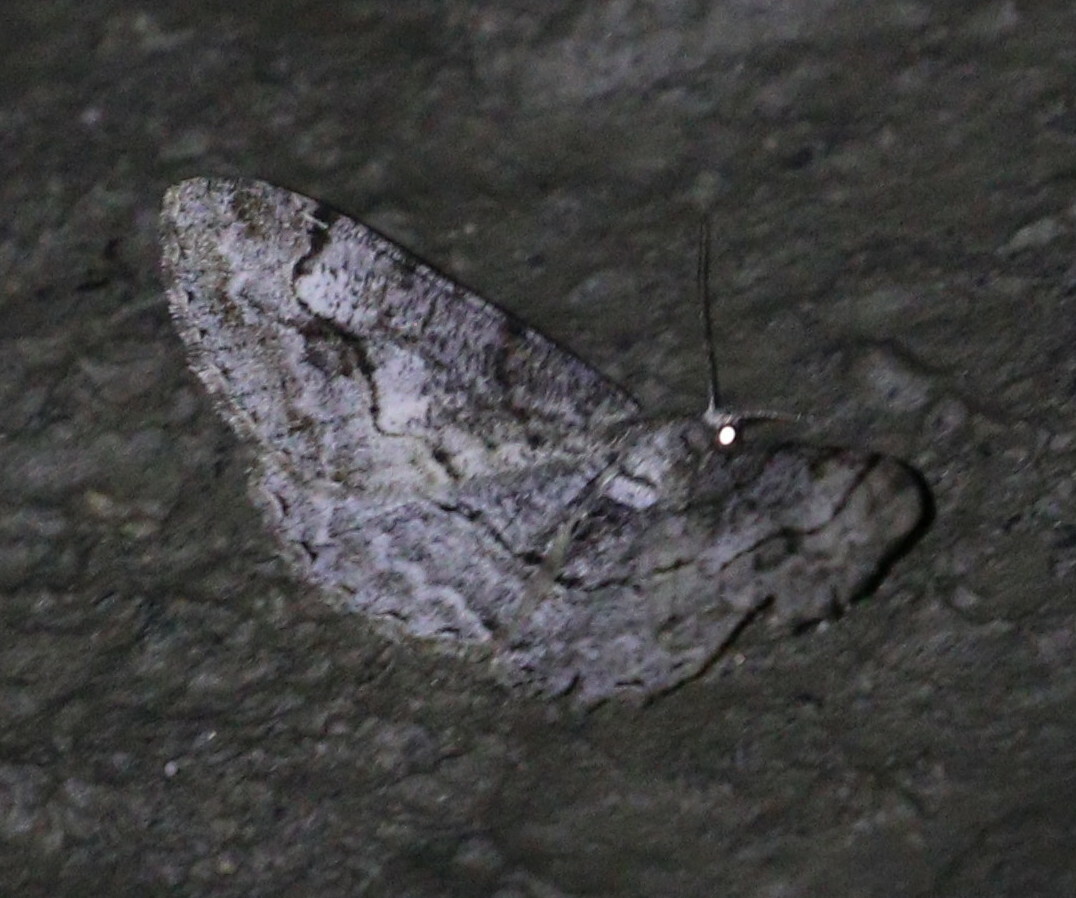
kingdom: Animalia
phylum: Arthropoda
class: Insecta
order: Lepidoptera
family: Geometridae
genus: Alcis
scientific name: Alcis repandata
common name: Mottled beauty
